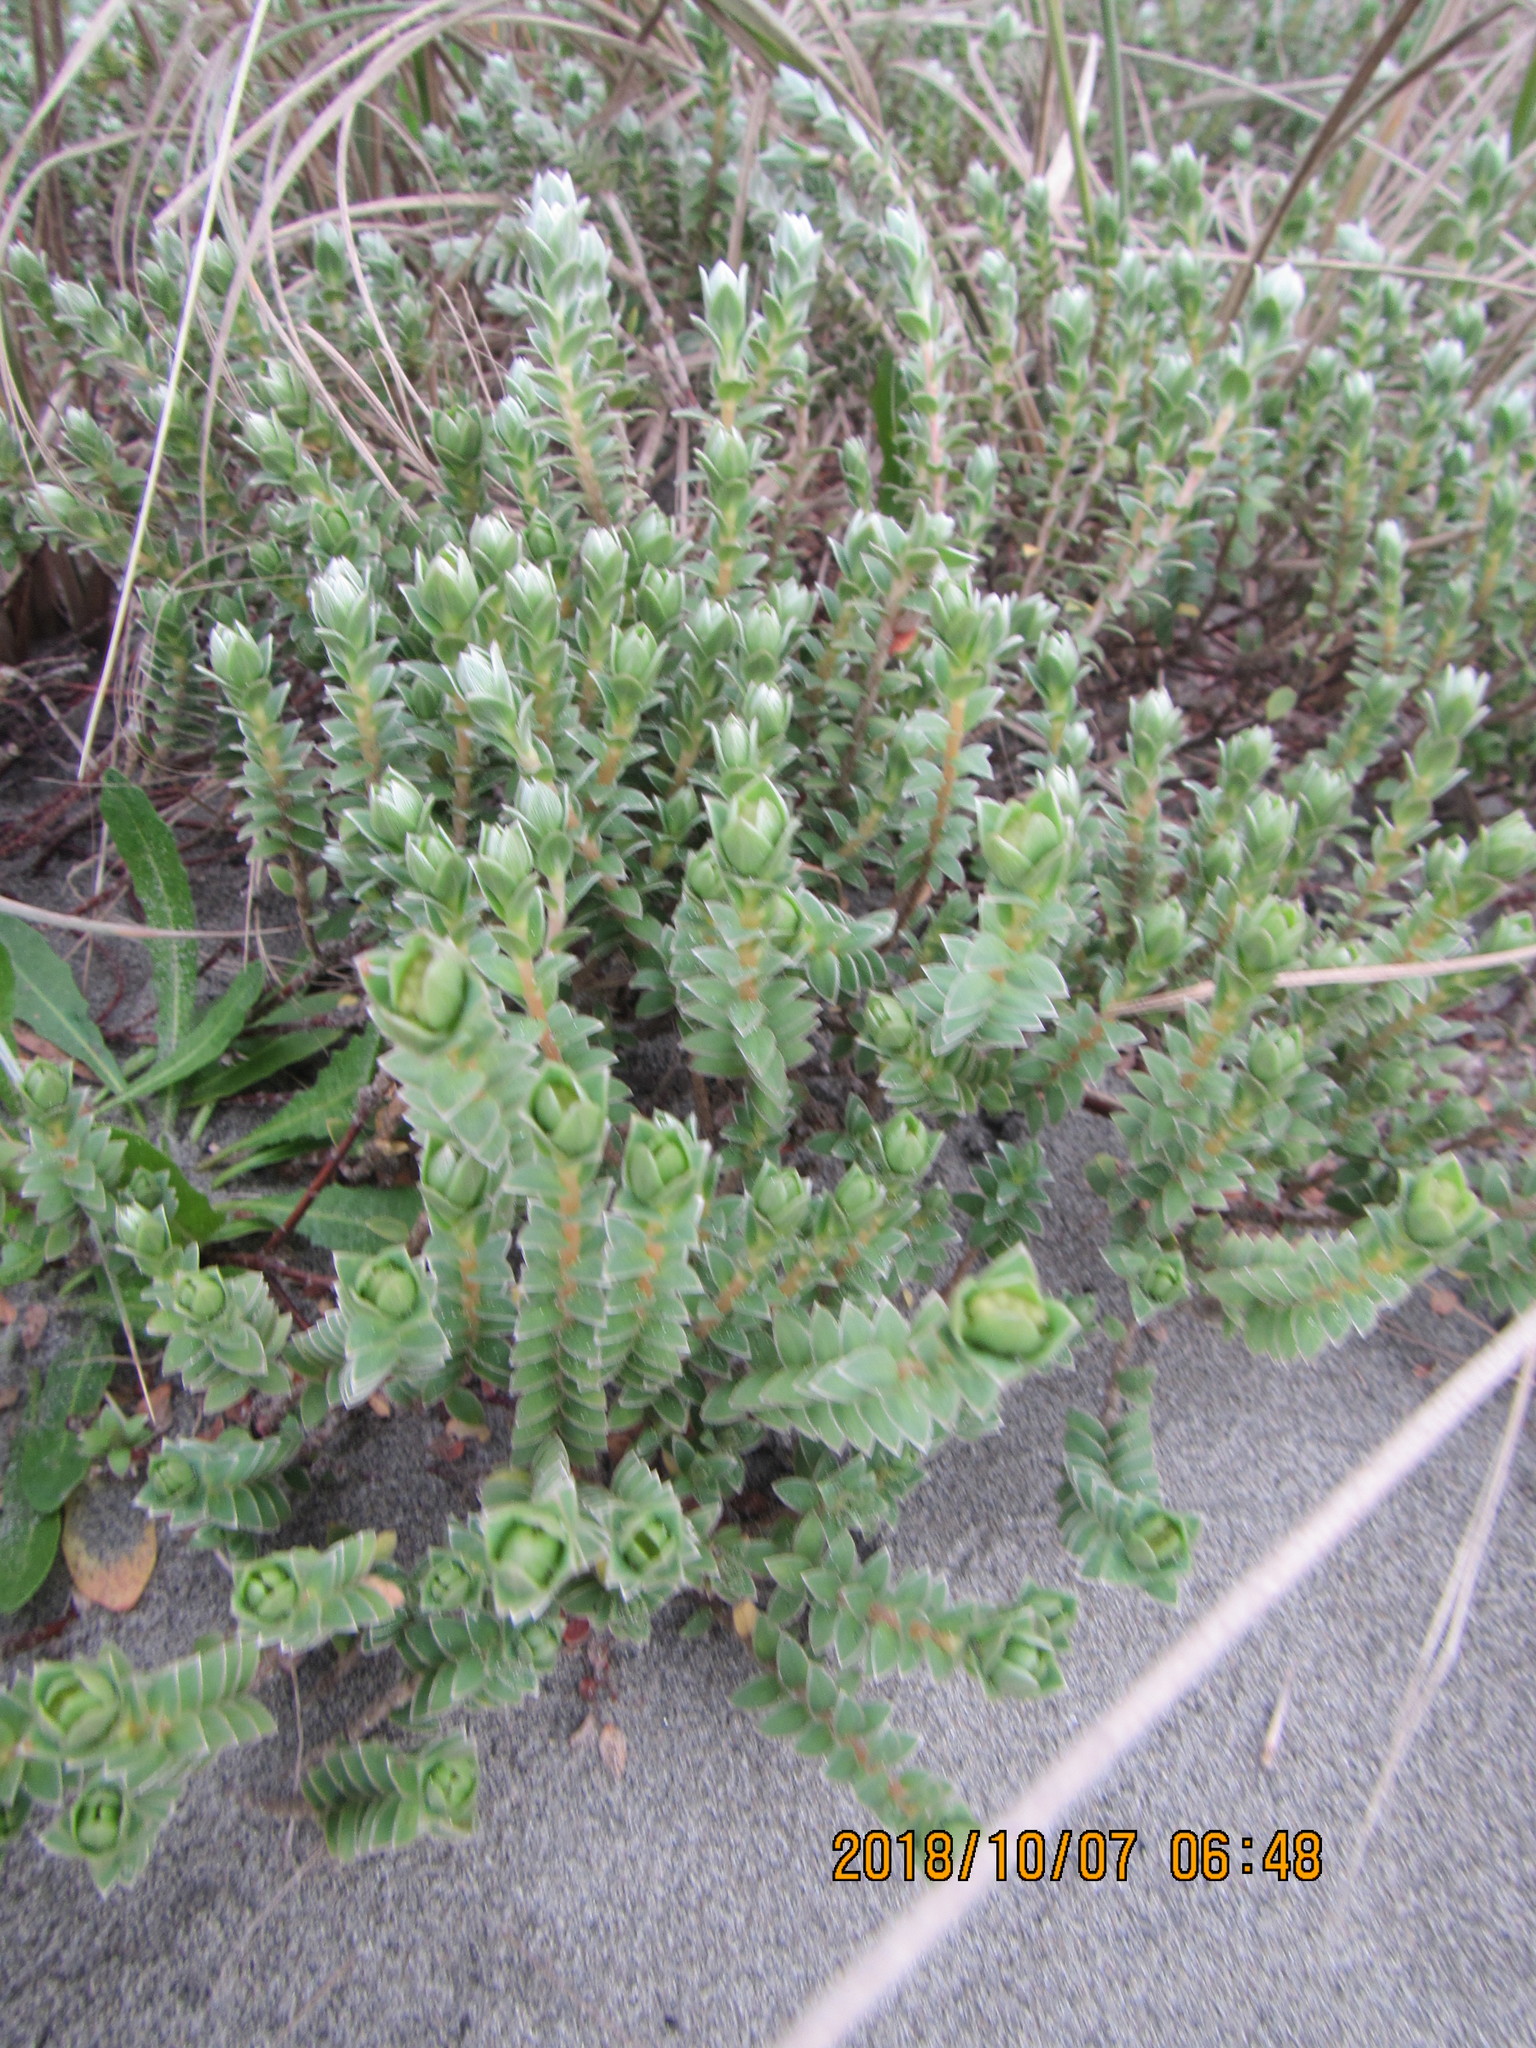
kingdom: Plantae
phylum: Tracheophyta
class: Magnoliopsida
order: Malvales
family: Thymelaeaceae
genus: Pimelea
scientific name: Pimelea villosa
